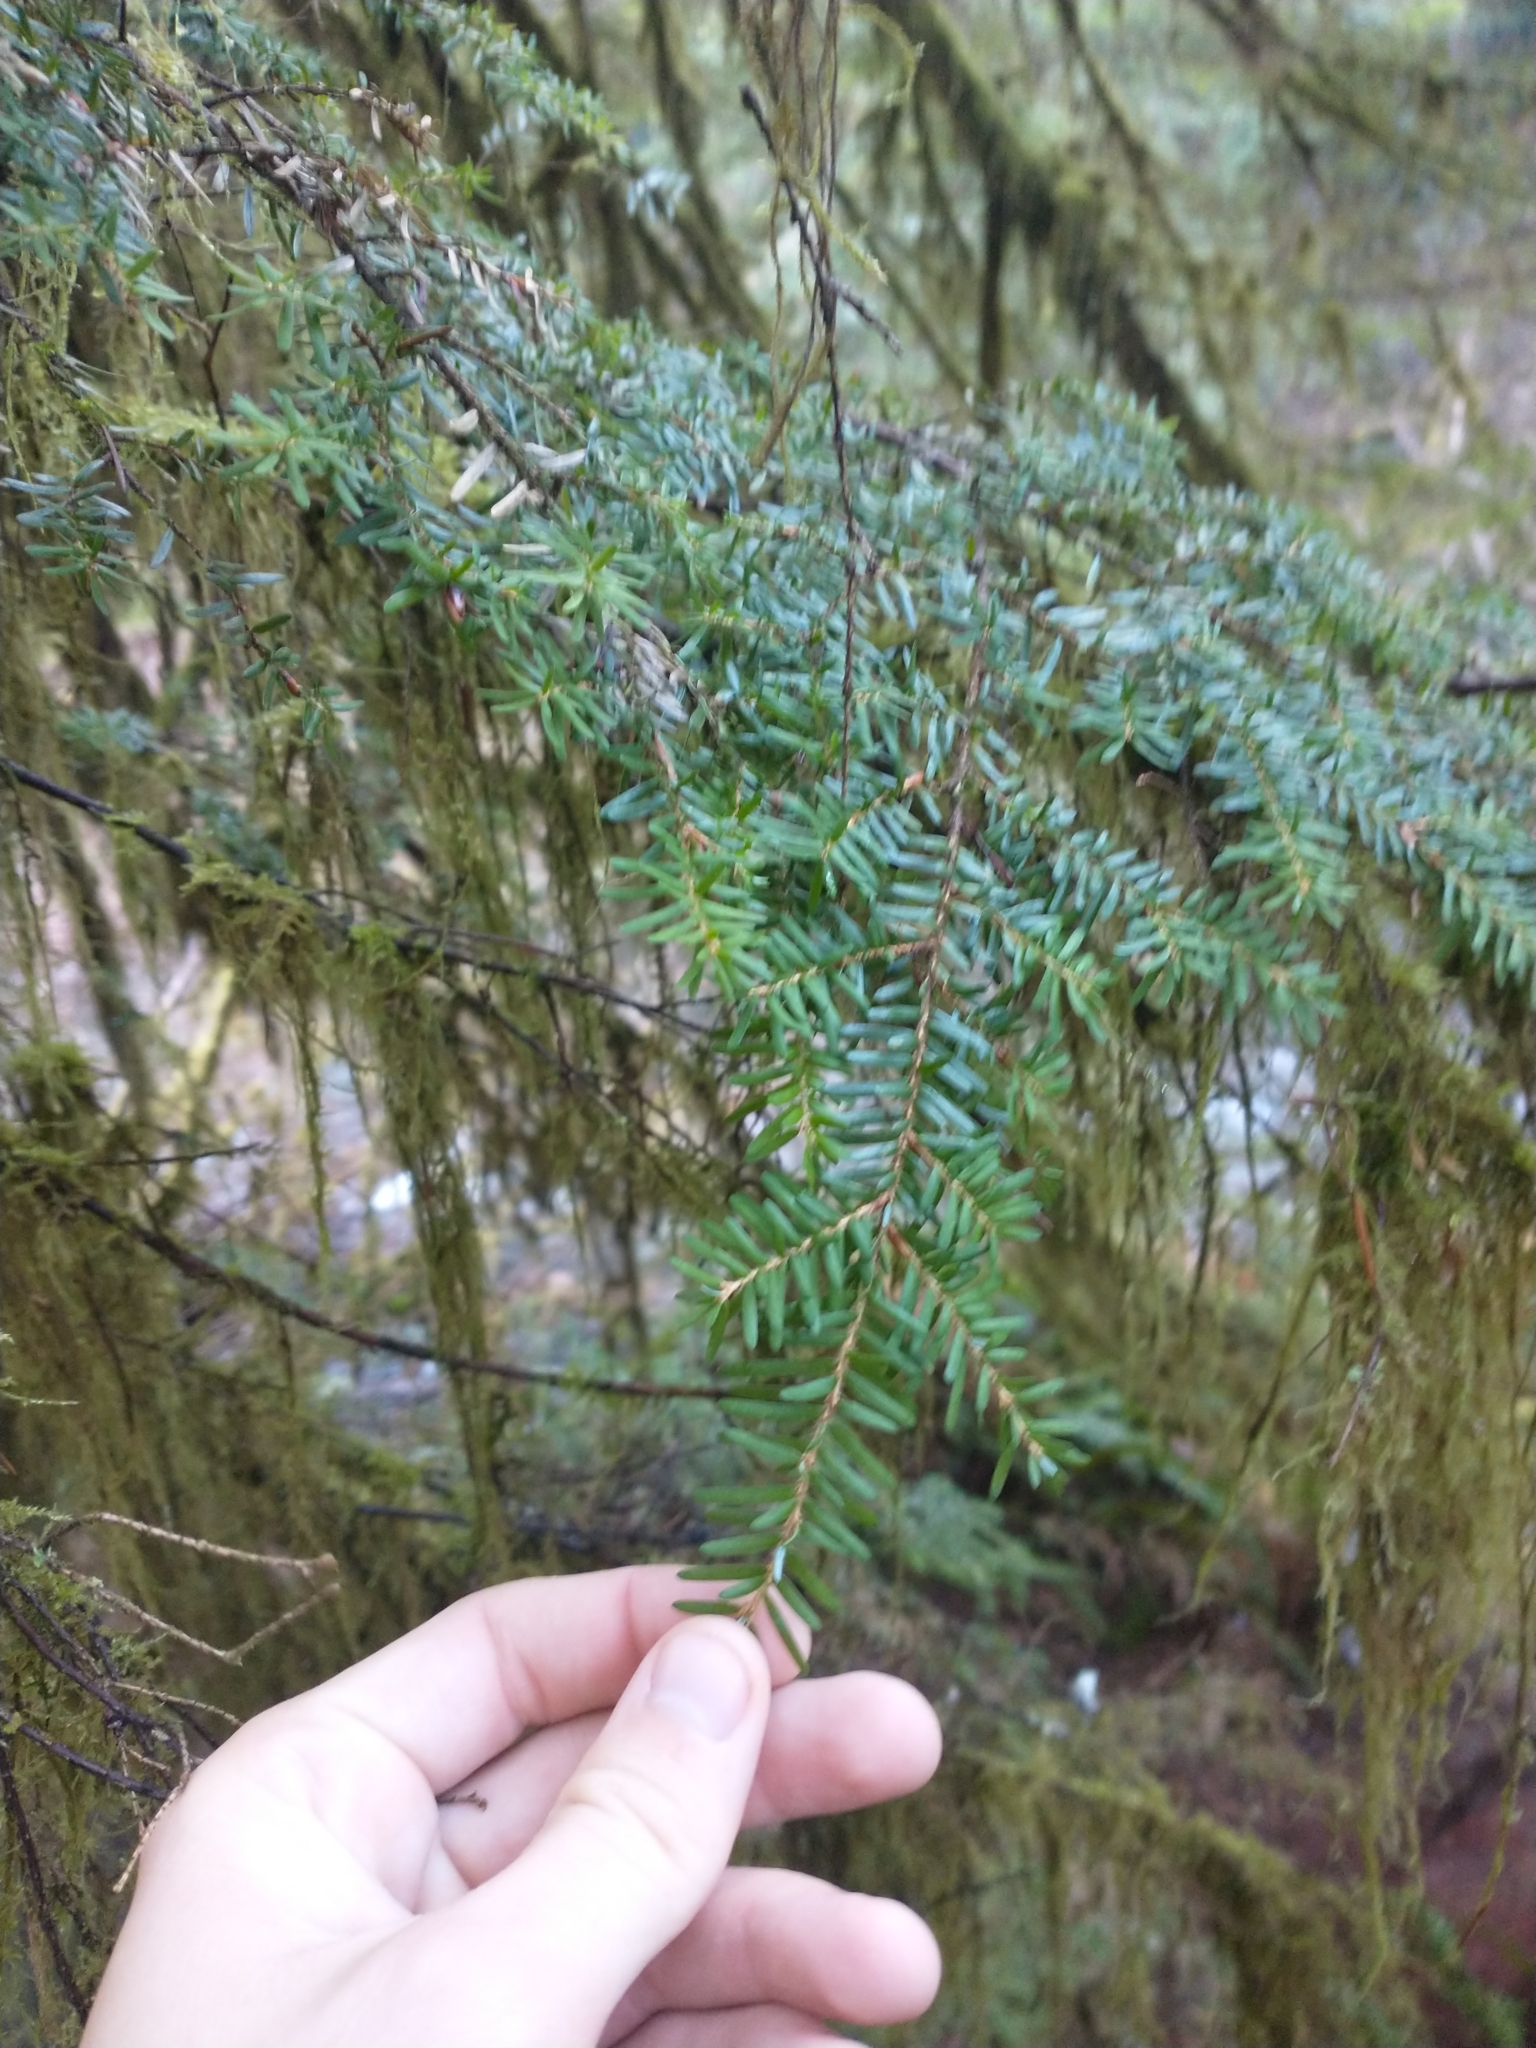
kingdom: Plantae
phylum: Tracheophyta
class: Pinopsida
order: Pinales
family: Pinaceae
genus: Tsuga
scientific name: Tsuga heterophylla
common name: Western hemlock
